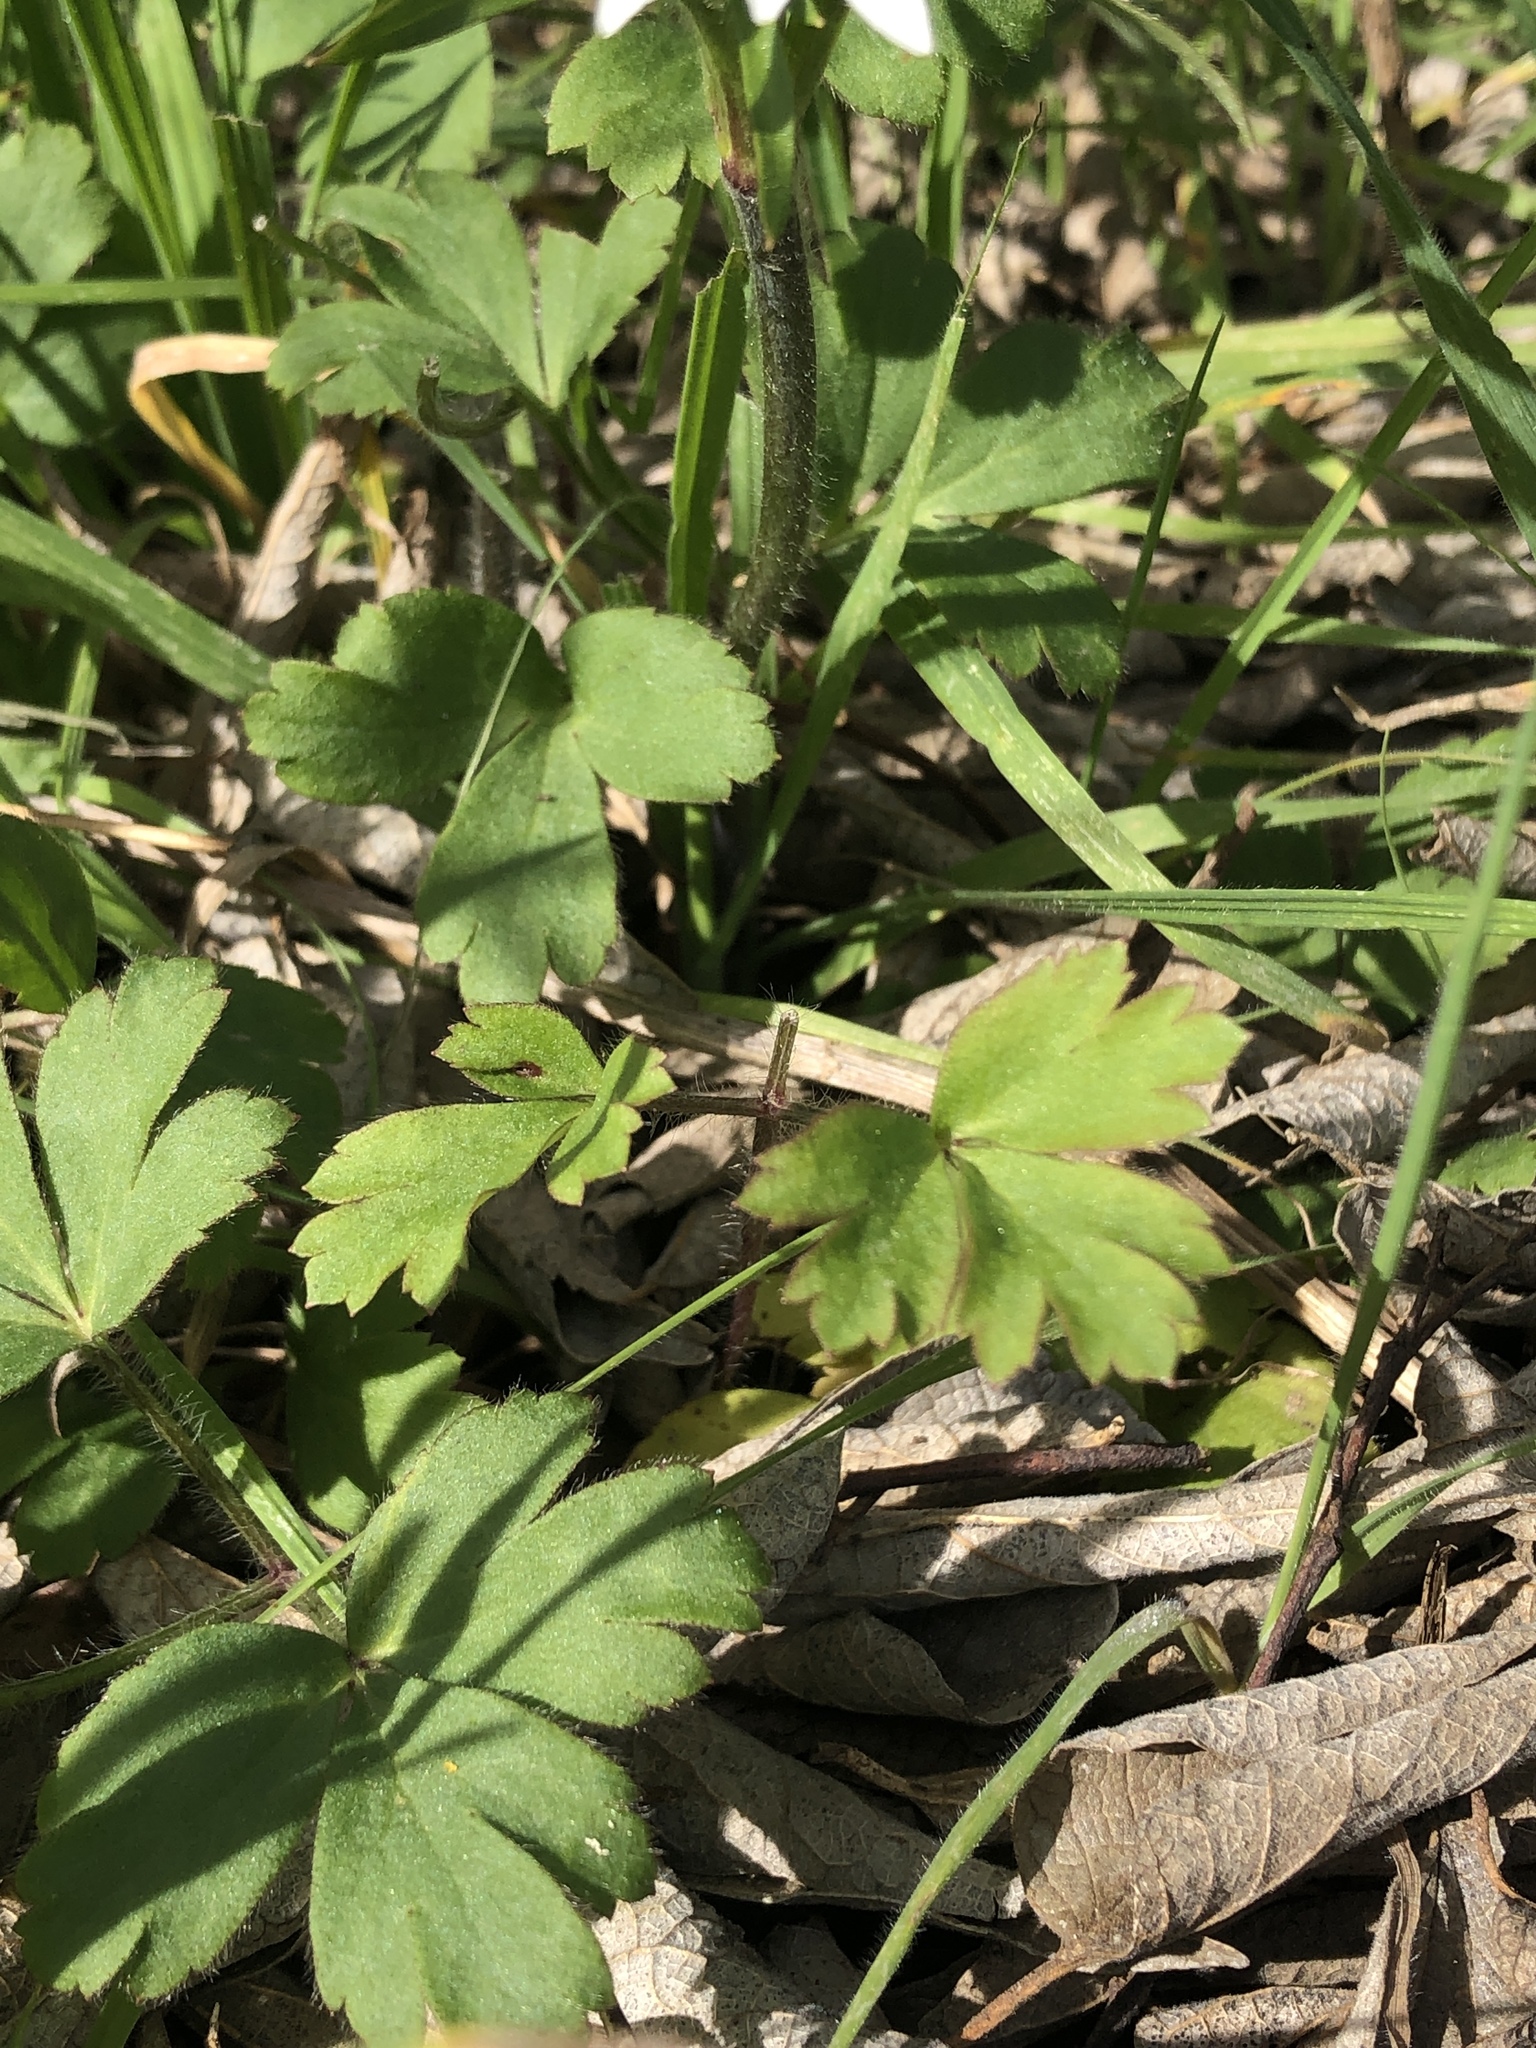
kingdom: Plantae
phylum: Tracheophyta
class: Magnoliopsida
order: Ranunculales
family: Ranunculaceae
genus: Anemone
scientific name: Anemone berlandieri
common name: Ten-petal anemone
